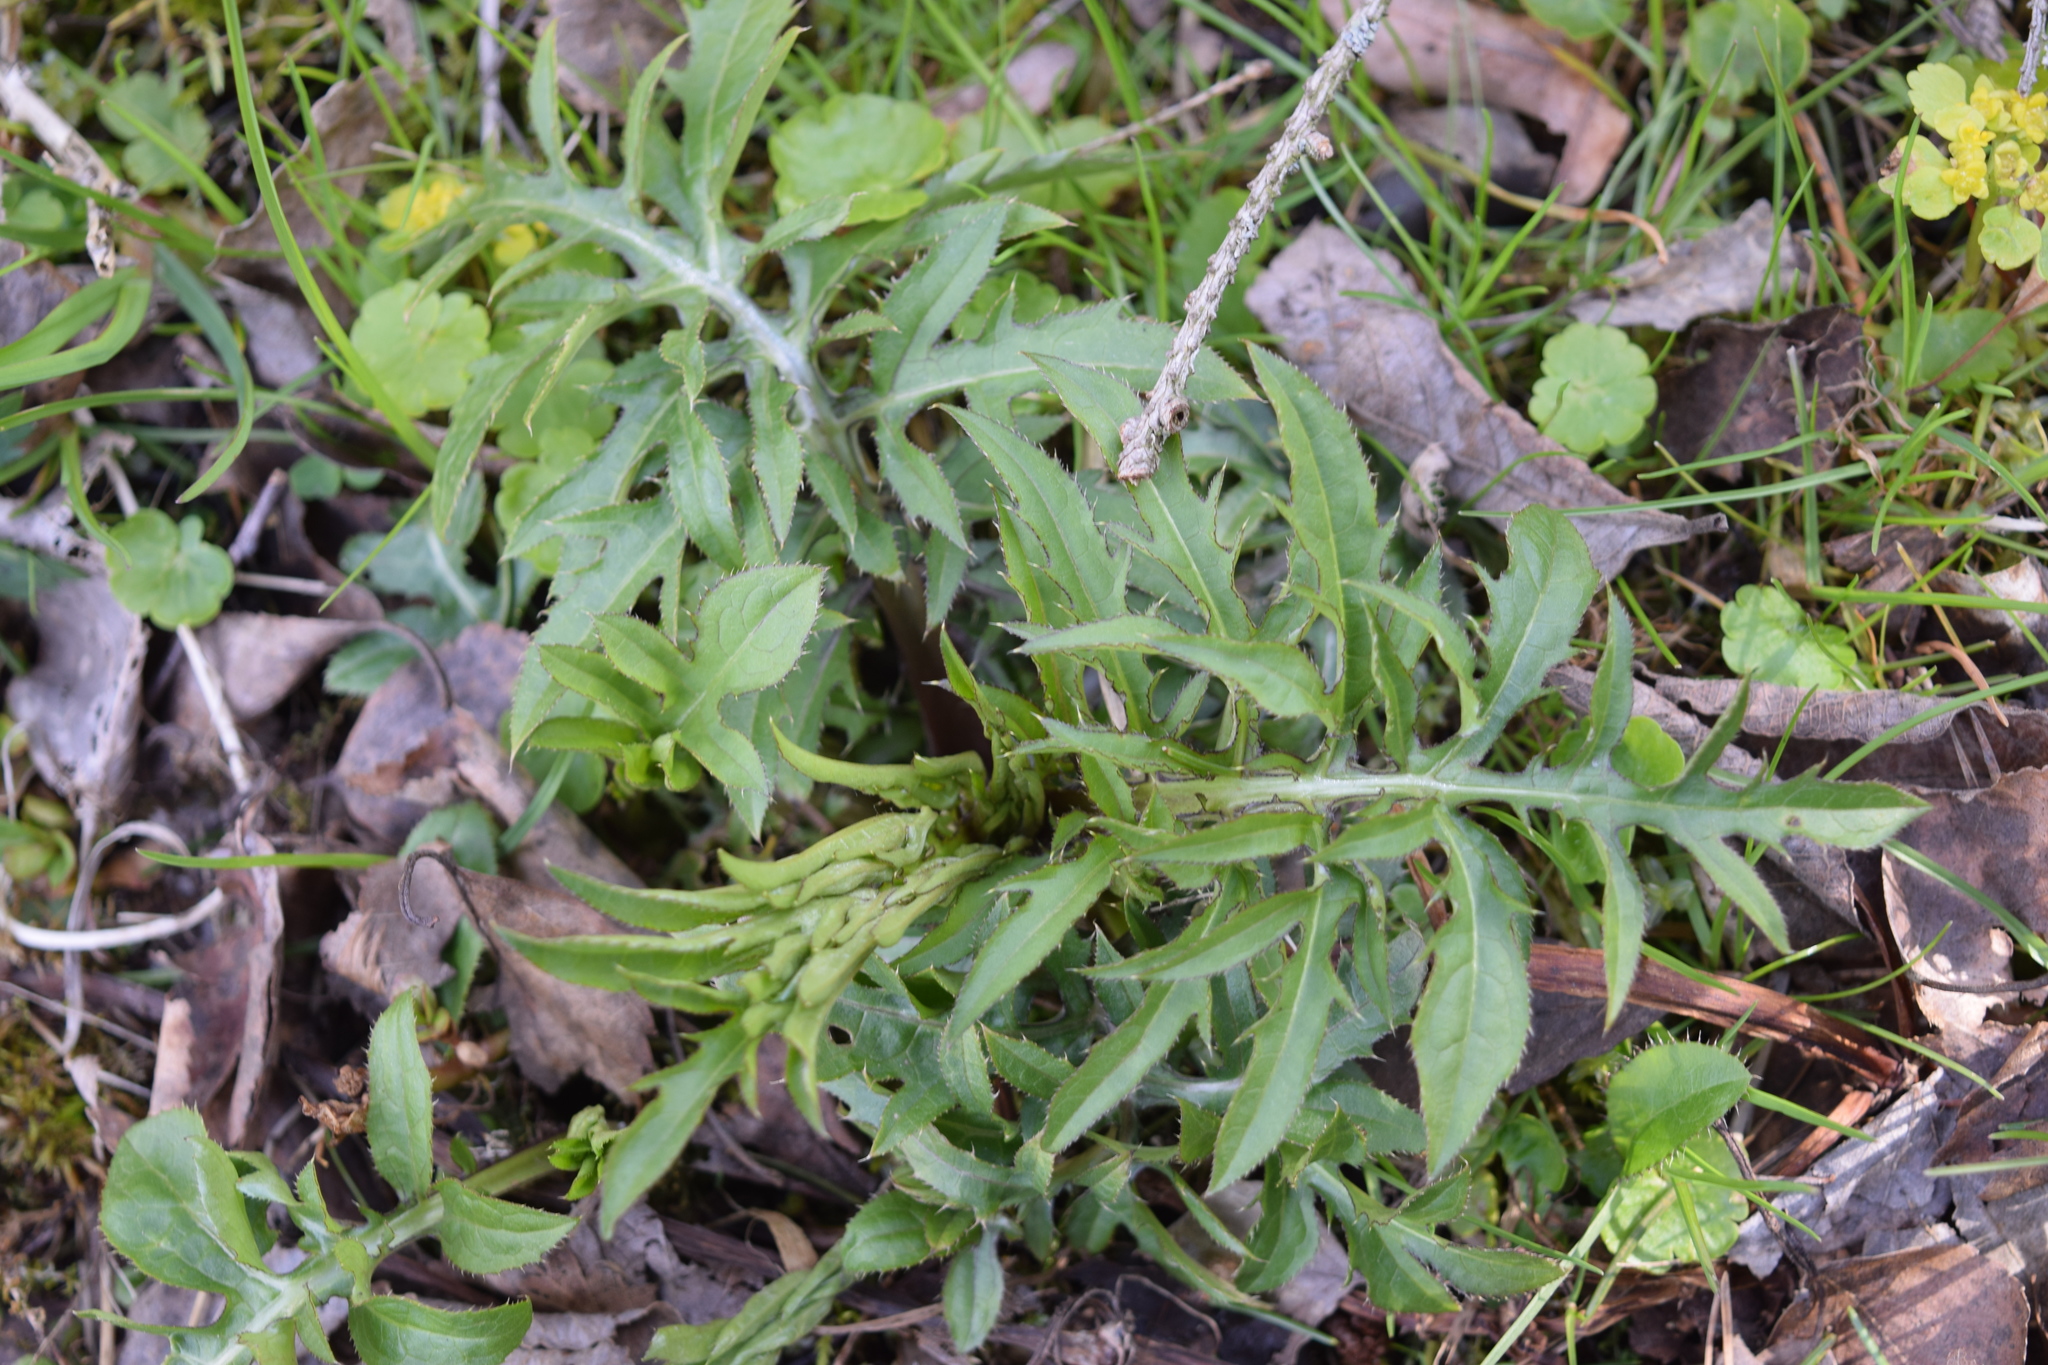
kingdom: Plantae
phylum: Tracheophyta
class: Magnoliopsida
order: Asterales
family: Asteraceae
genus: Cirsium
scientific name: Cirsium oleraceum
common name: Cabbage thistle
